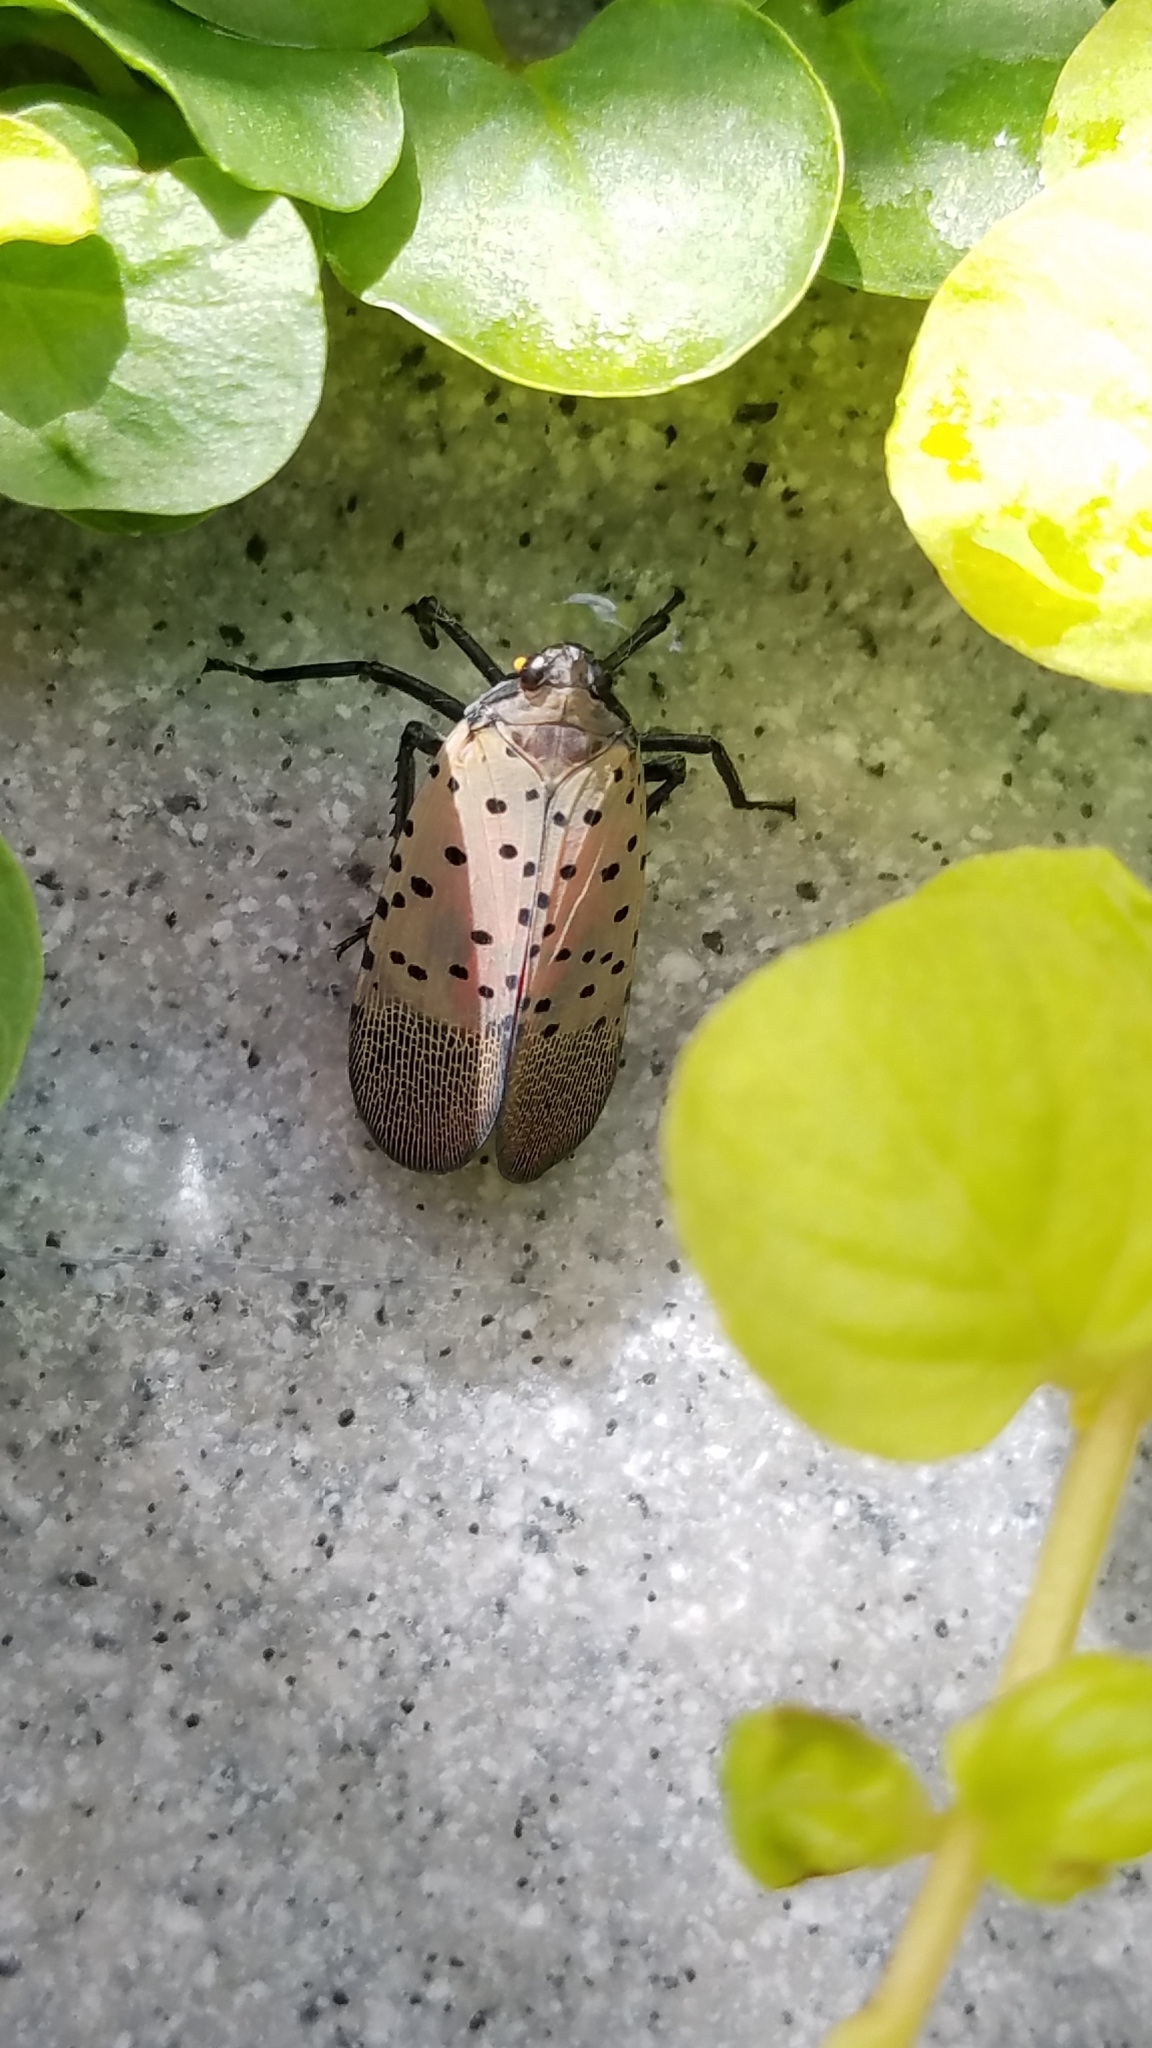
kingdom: Animalia
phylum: Arthropoda
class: Insecta
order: Hemiptera
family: Fulgoridae
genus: Lycorma
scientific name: Lycorma delicatula
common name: Spotted lanternfly
